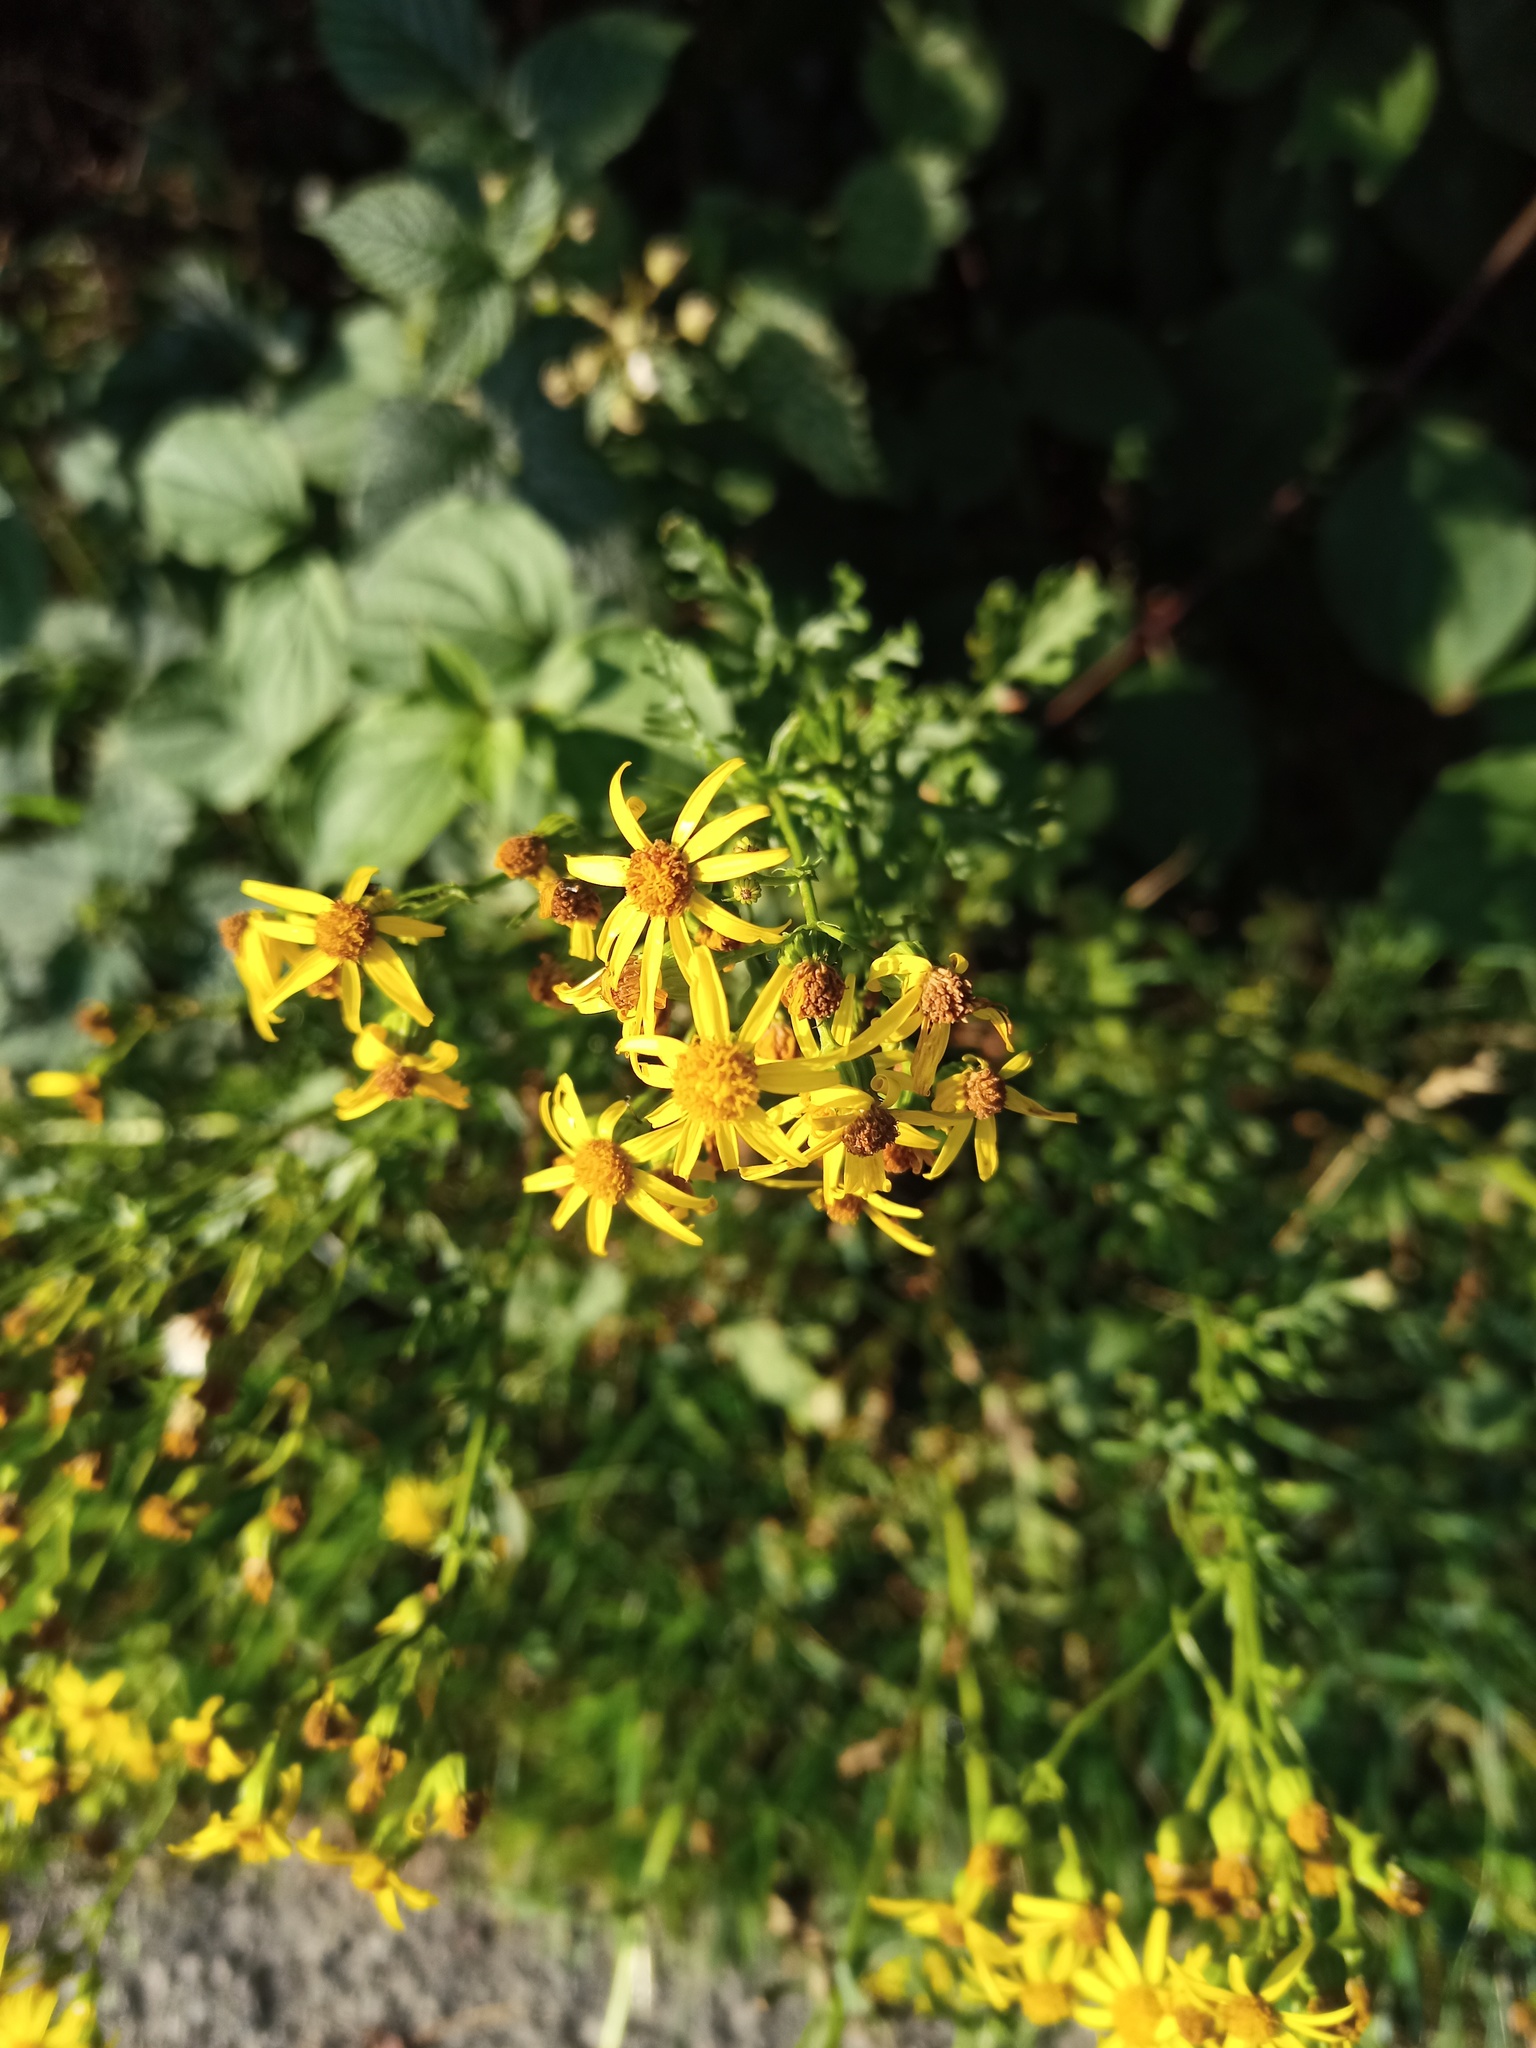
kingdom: Plantae
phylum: Tracheophyta
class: Magnoliopsida
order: Asterales
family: Asteraceae
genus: Jacobaea
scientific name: Jacobaea vulgaris
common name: Stinking willie
